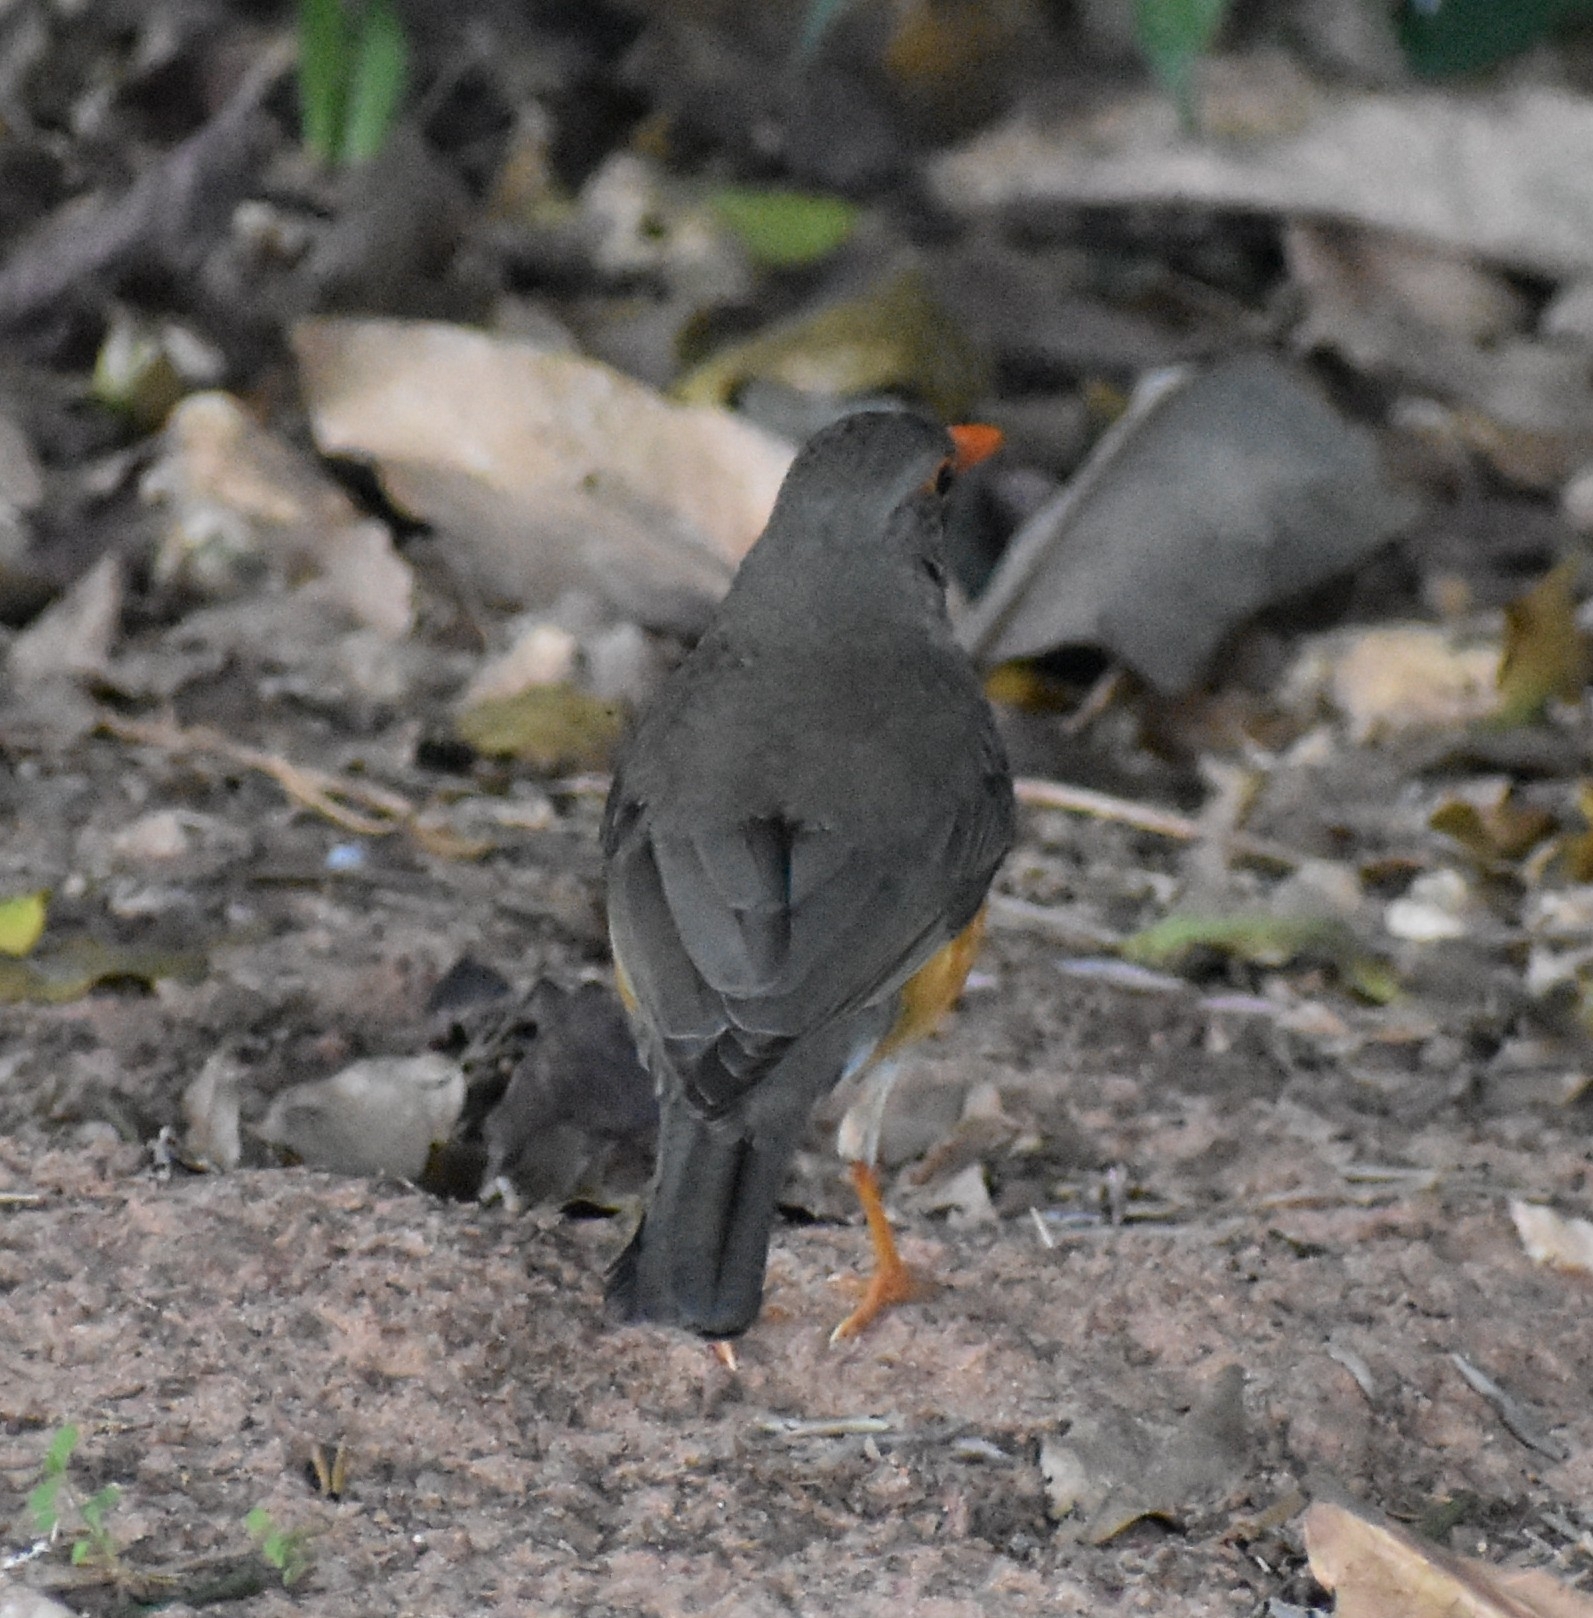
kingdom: Animalia
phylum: Chordata
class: Aves
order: Passeriformes
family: Turdidae
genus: Turdus
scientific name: Turdus libonyana
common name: Kurrichane thrush
